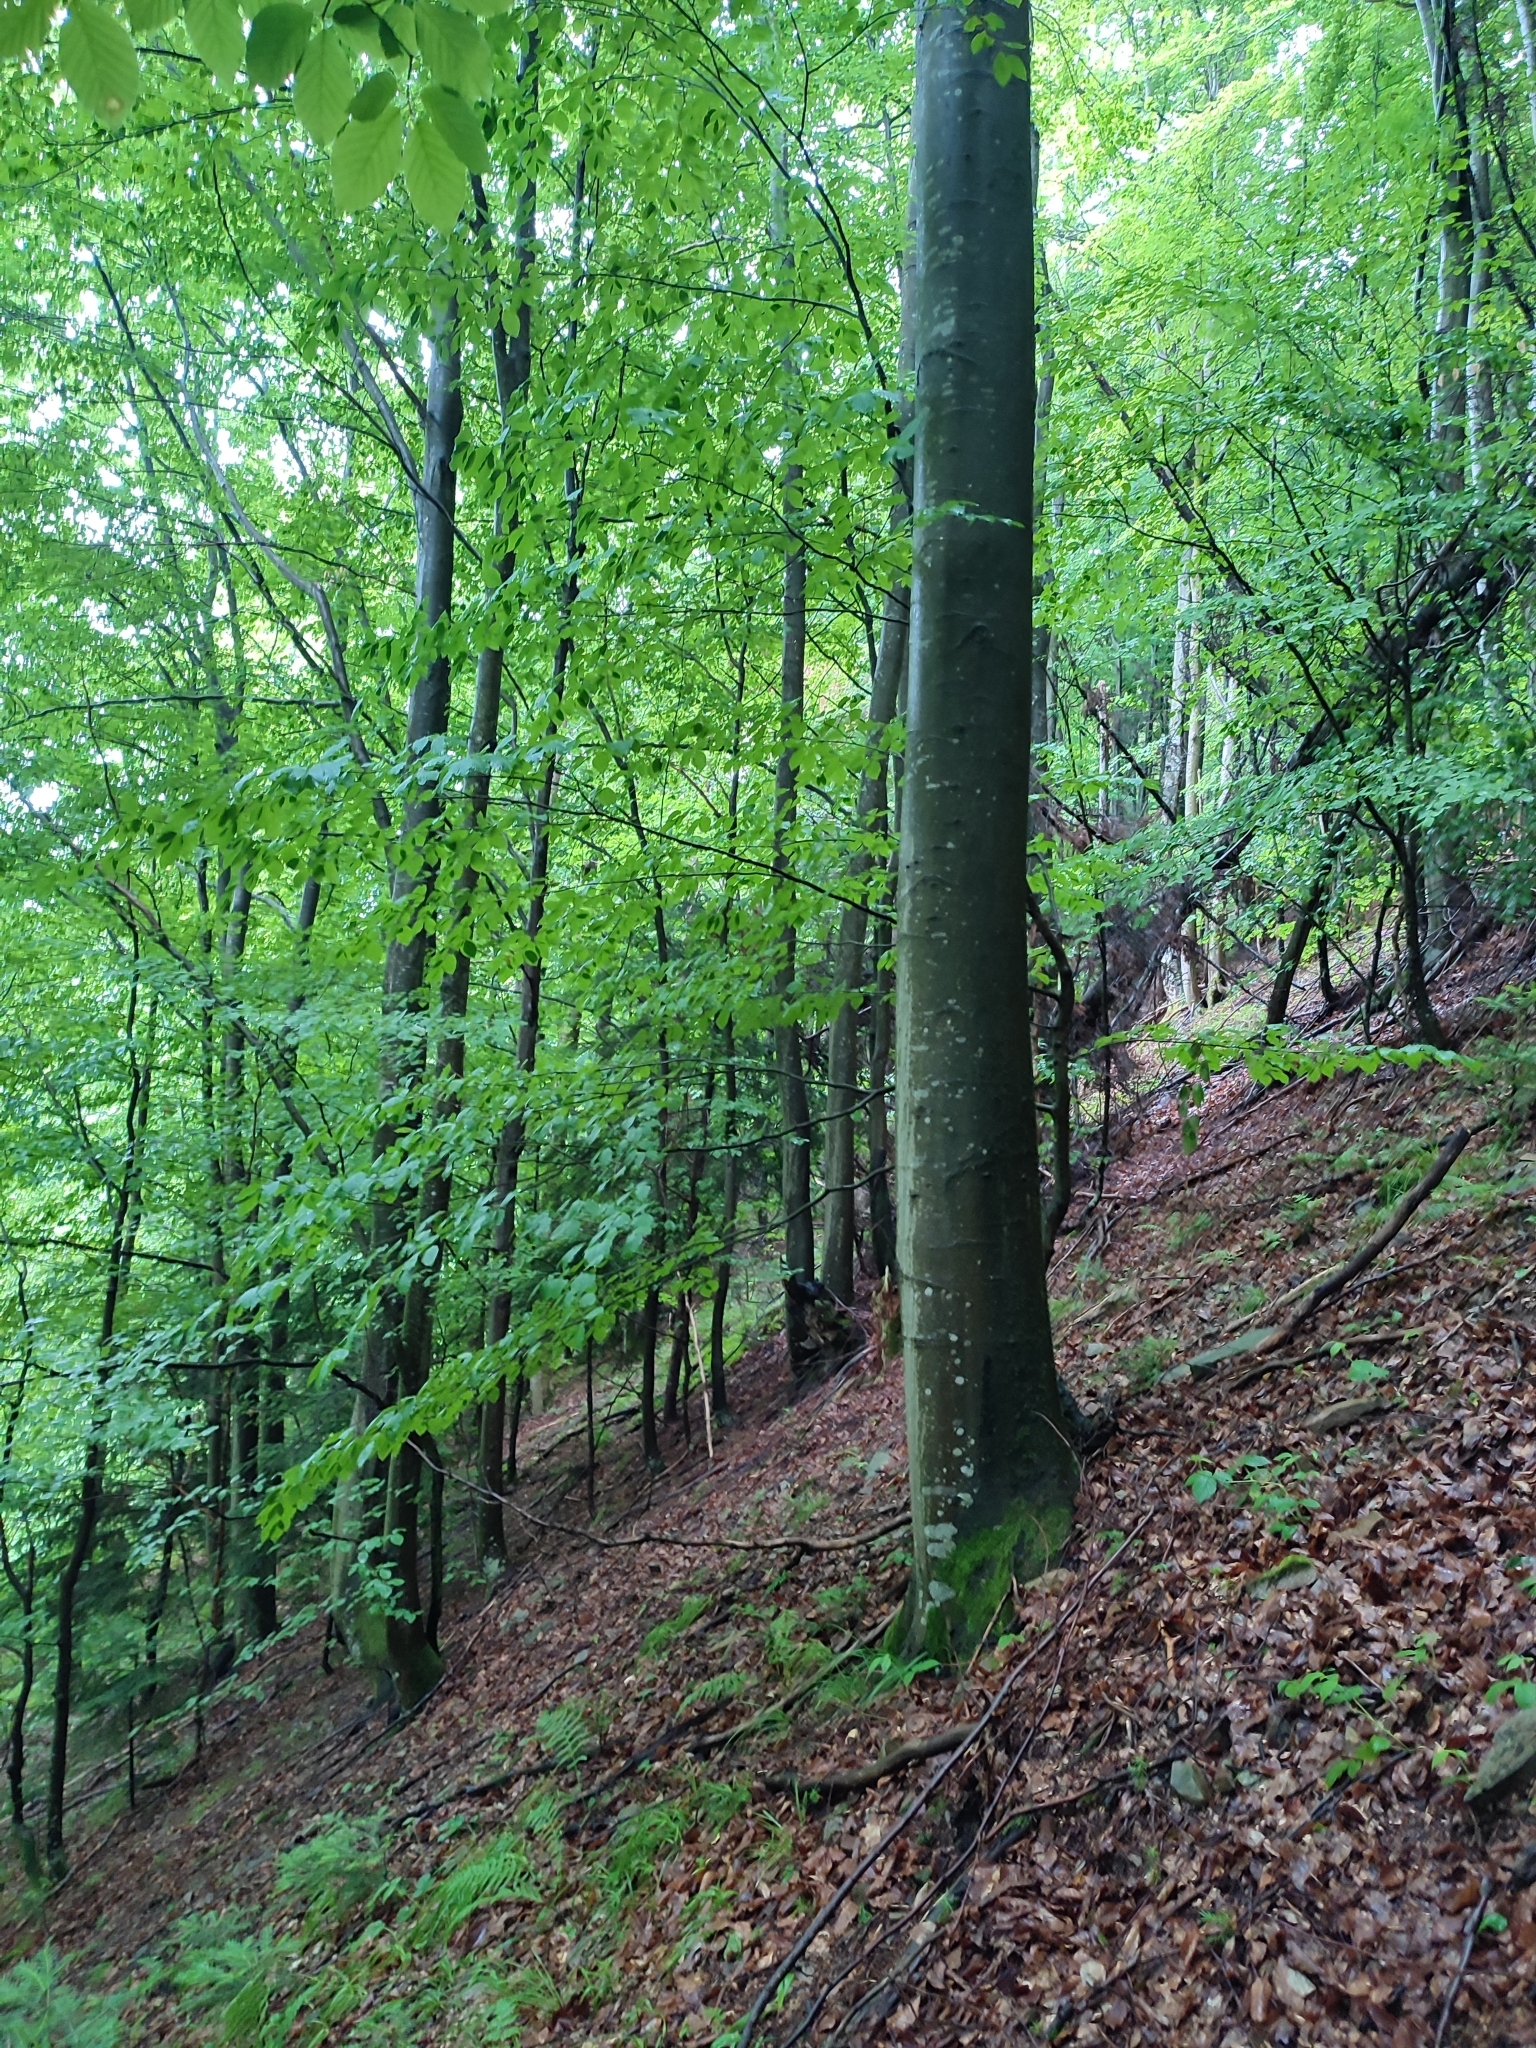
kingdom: Plantae
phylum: Tracheophyta
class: Magnoliopsida
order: Fagales
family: Fagaceae
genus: Fagus
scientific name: Fagus sylvatica
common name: Beech
